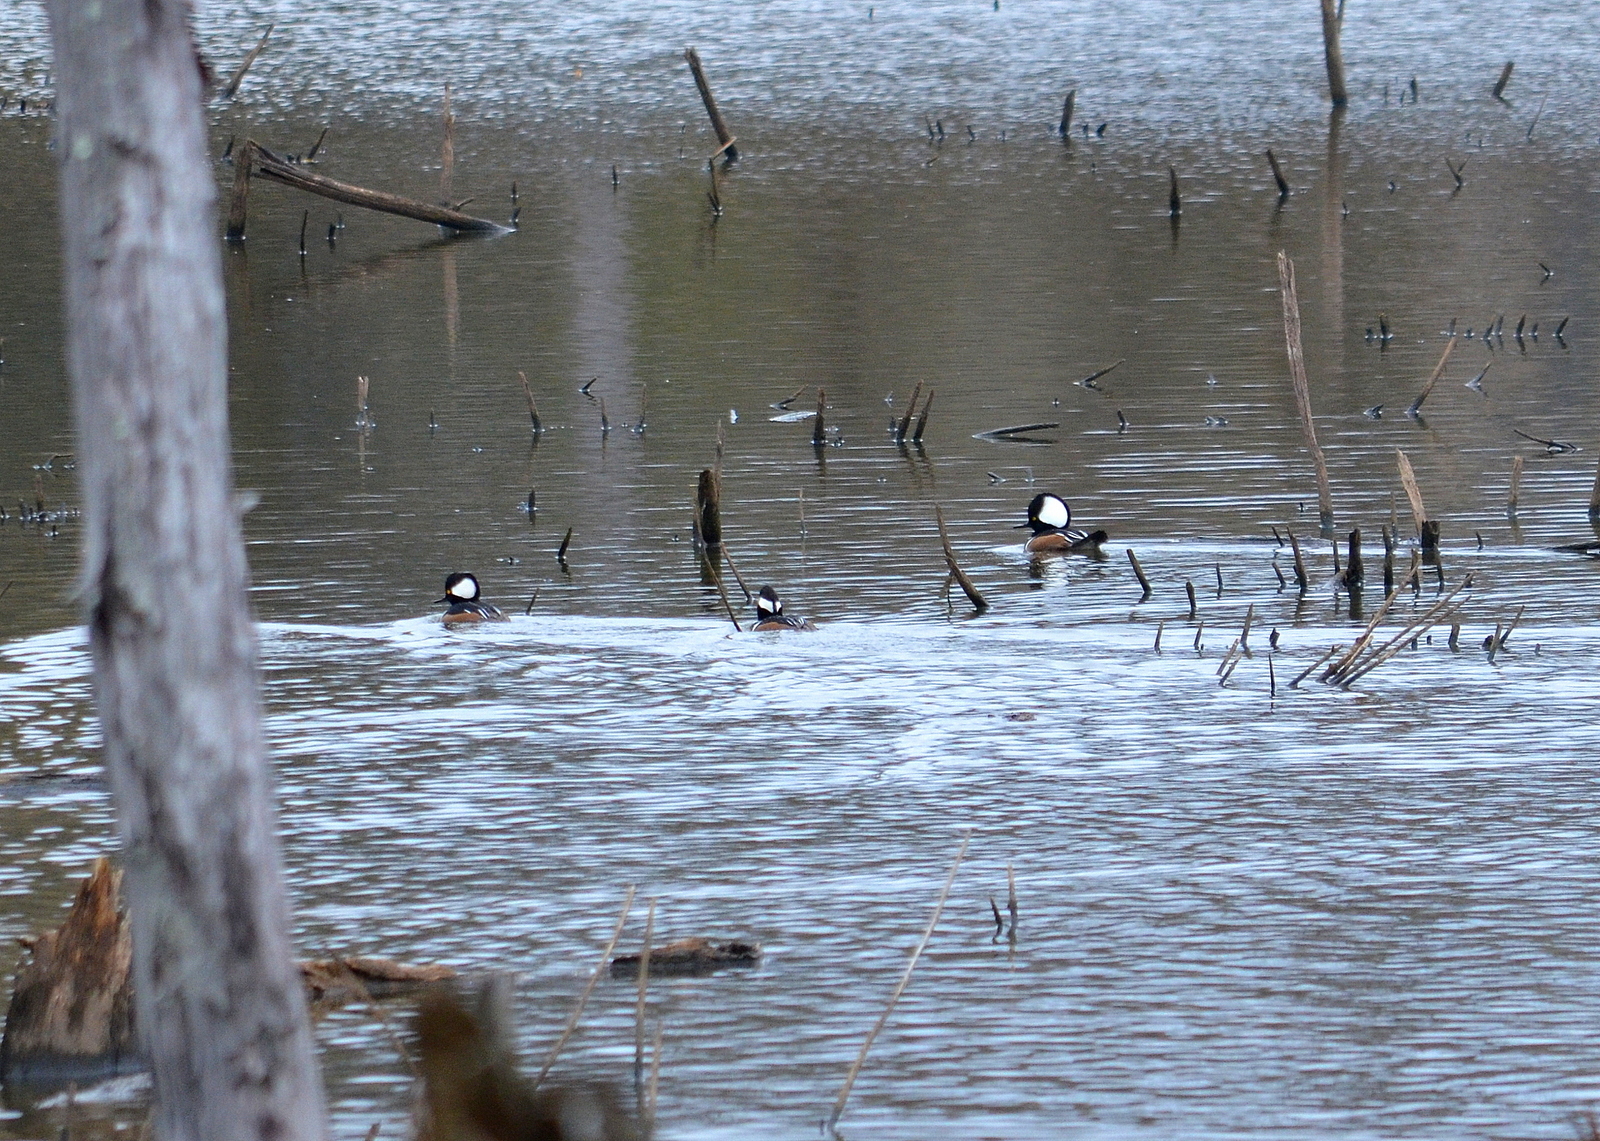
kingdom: Animalia
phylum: Chordata
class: Aves
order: Anseriformes
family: Anatidae
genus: Lophodytes
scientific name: Lophodytes cucullatus
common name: Hooded merganser
